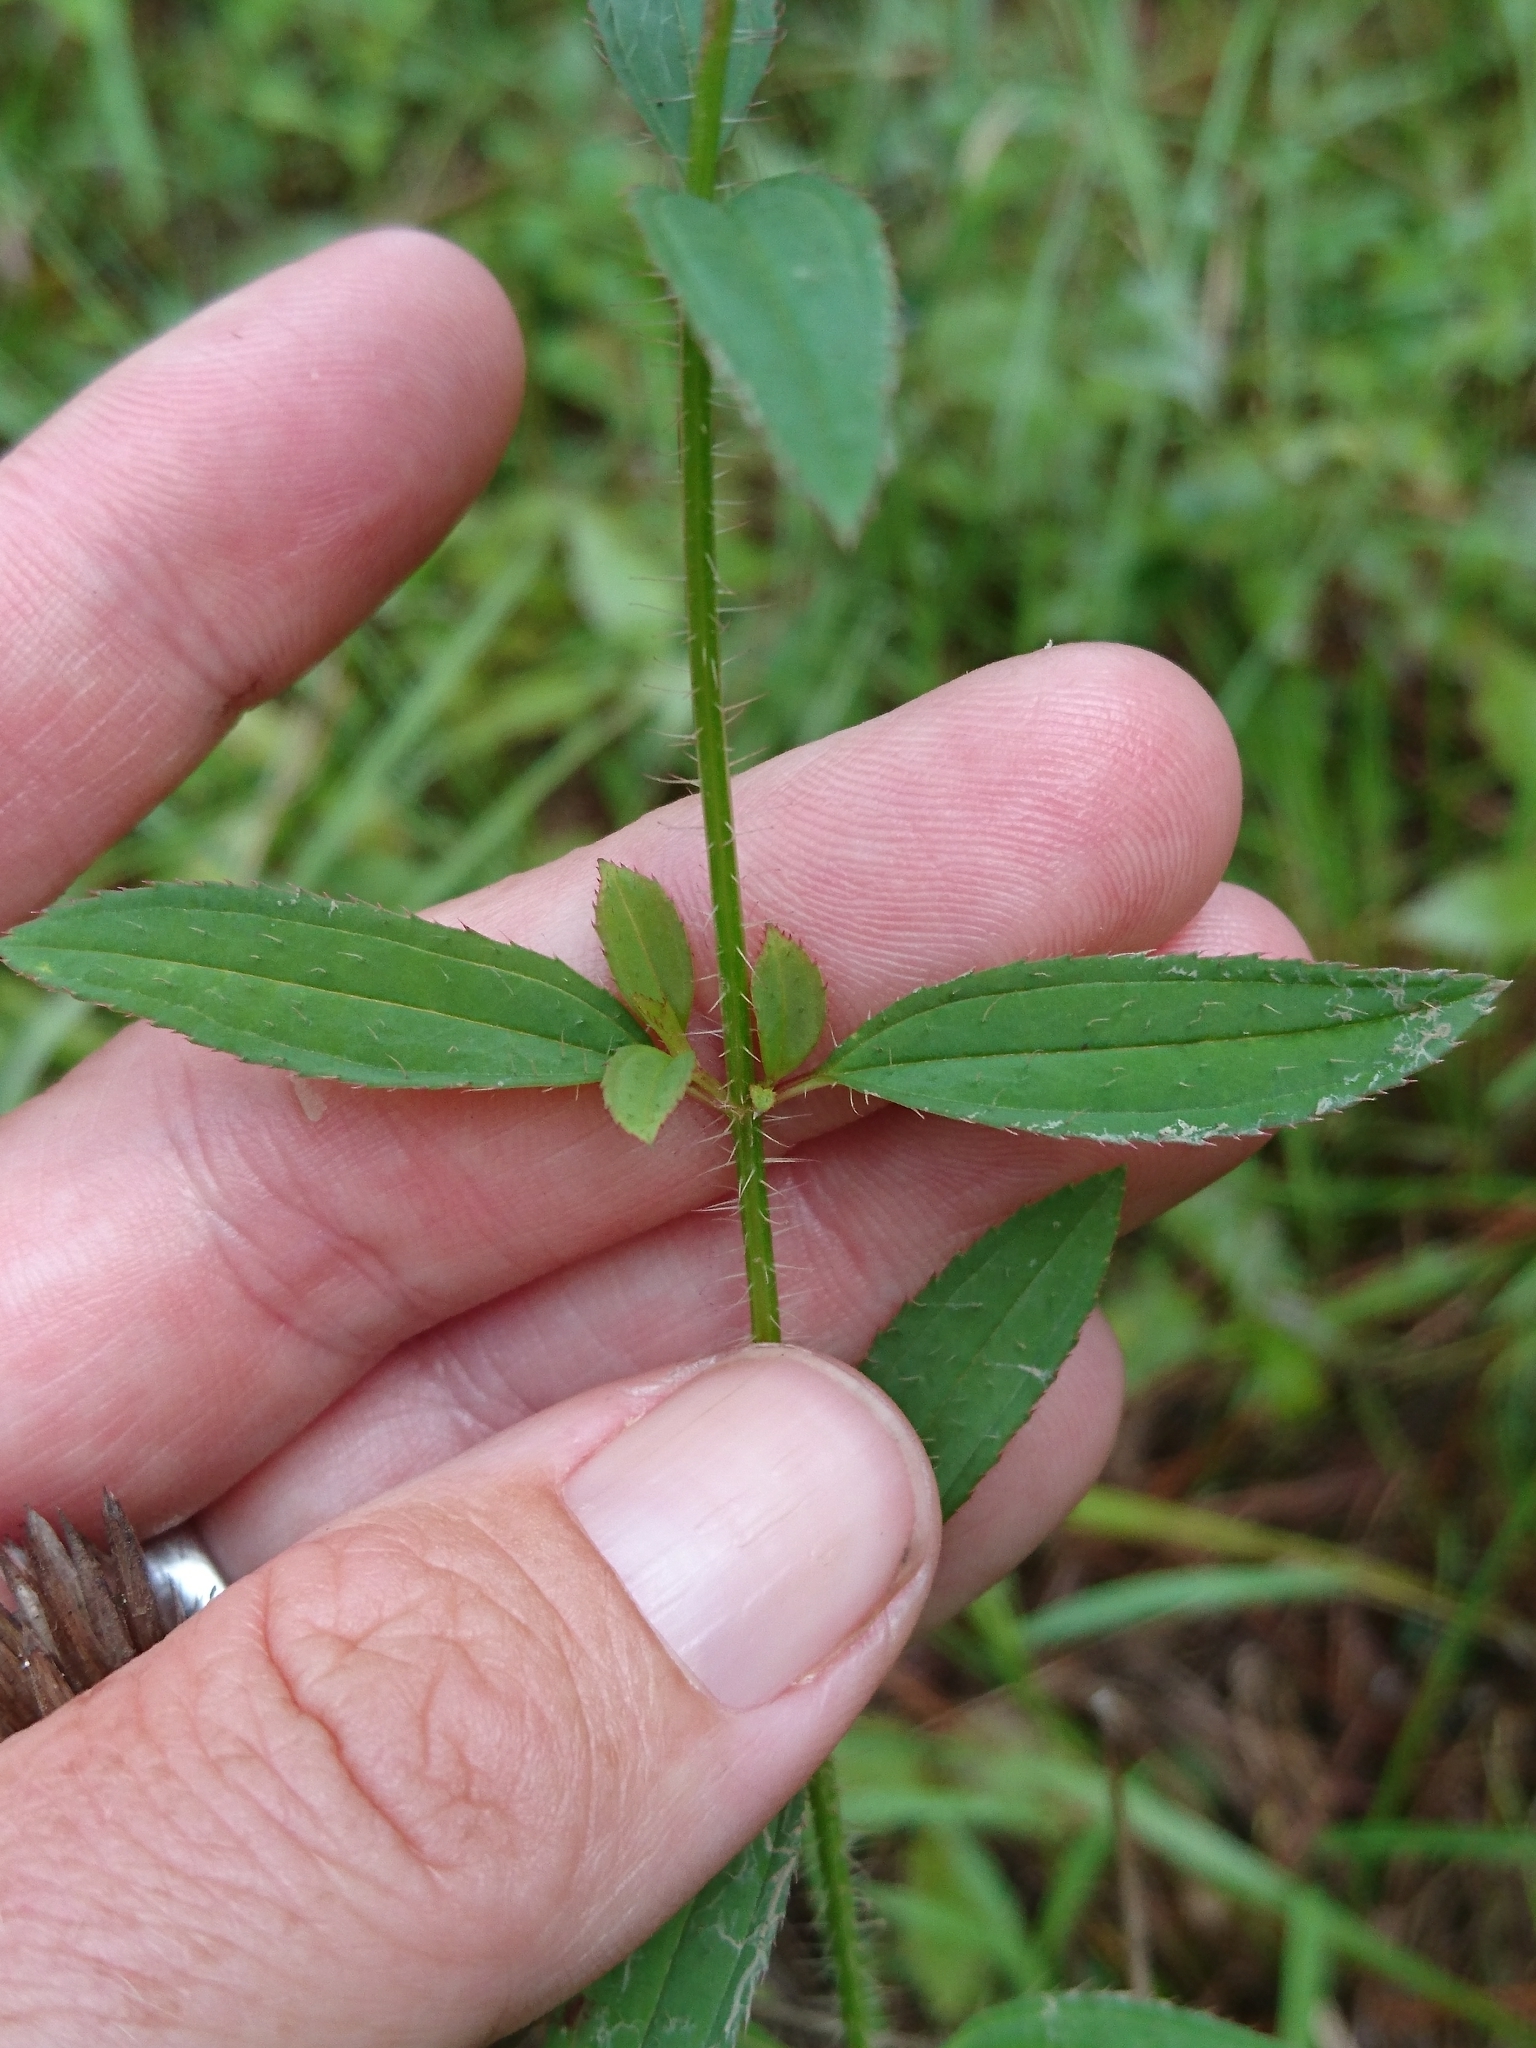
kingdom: Plantae
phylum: Tracheophyta
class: Magnoliopsida
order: Myrtales
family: Melastomataceae
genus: Rhexia
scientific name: Rhexia mariana
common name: Dull meadow-pitcher
